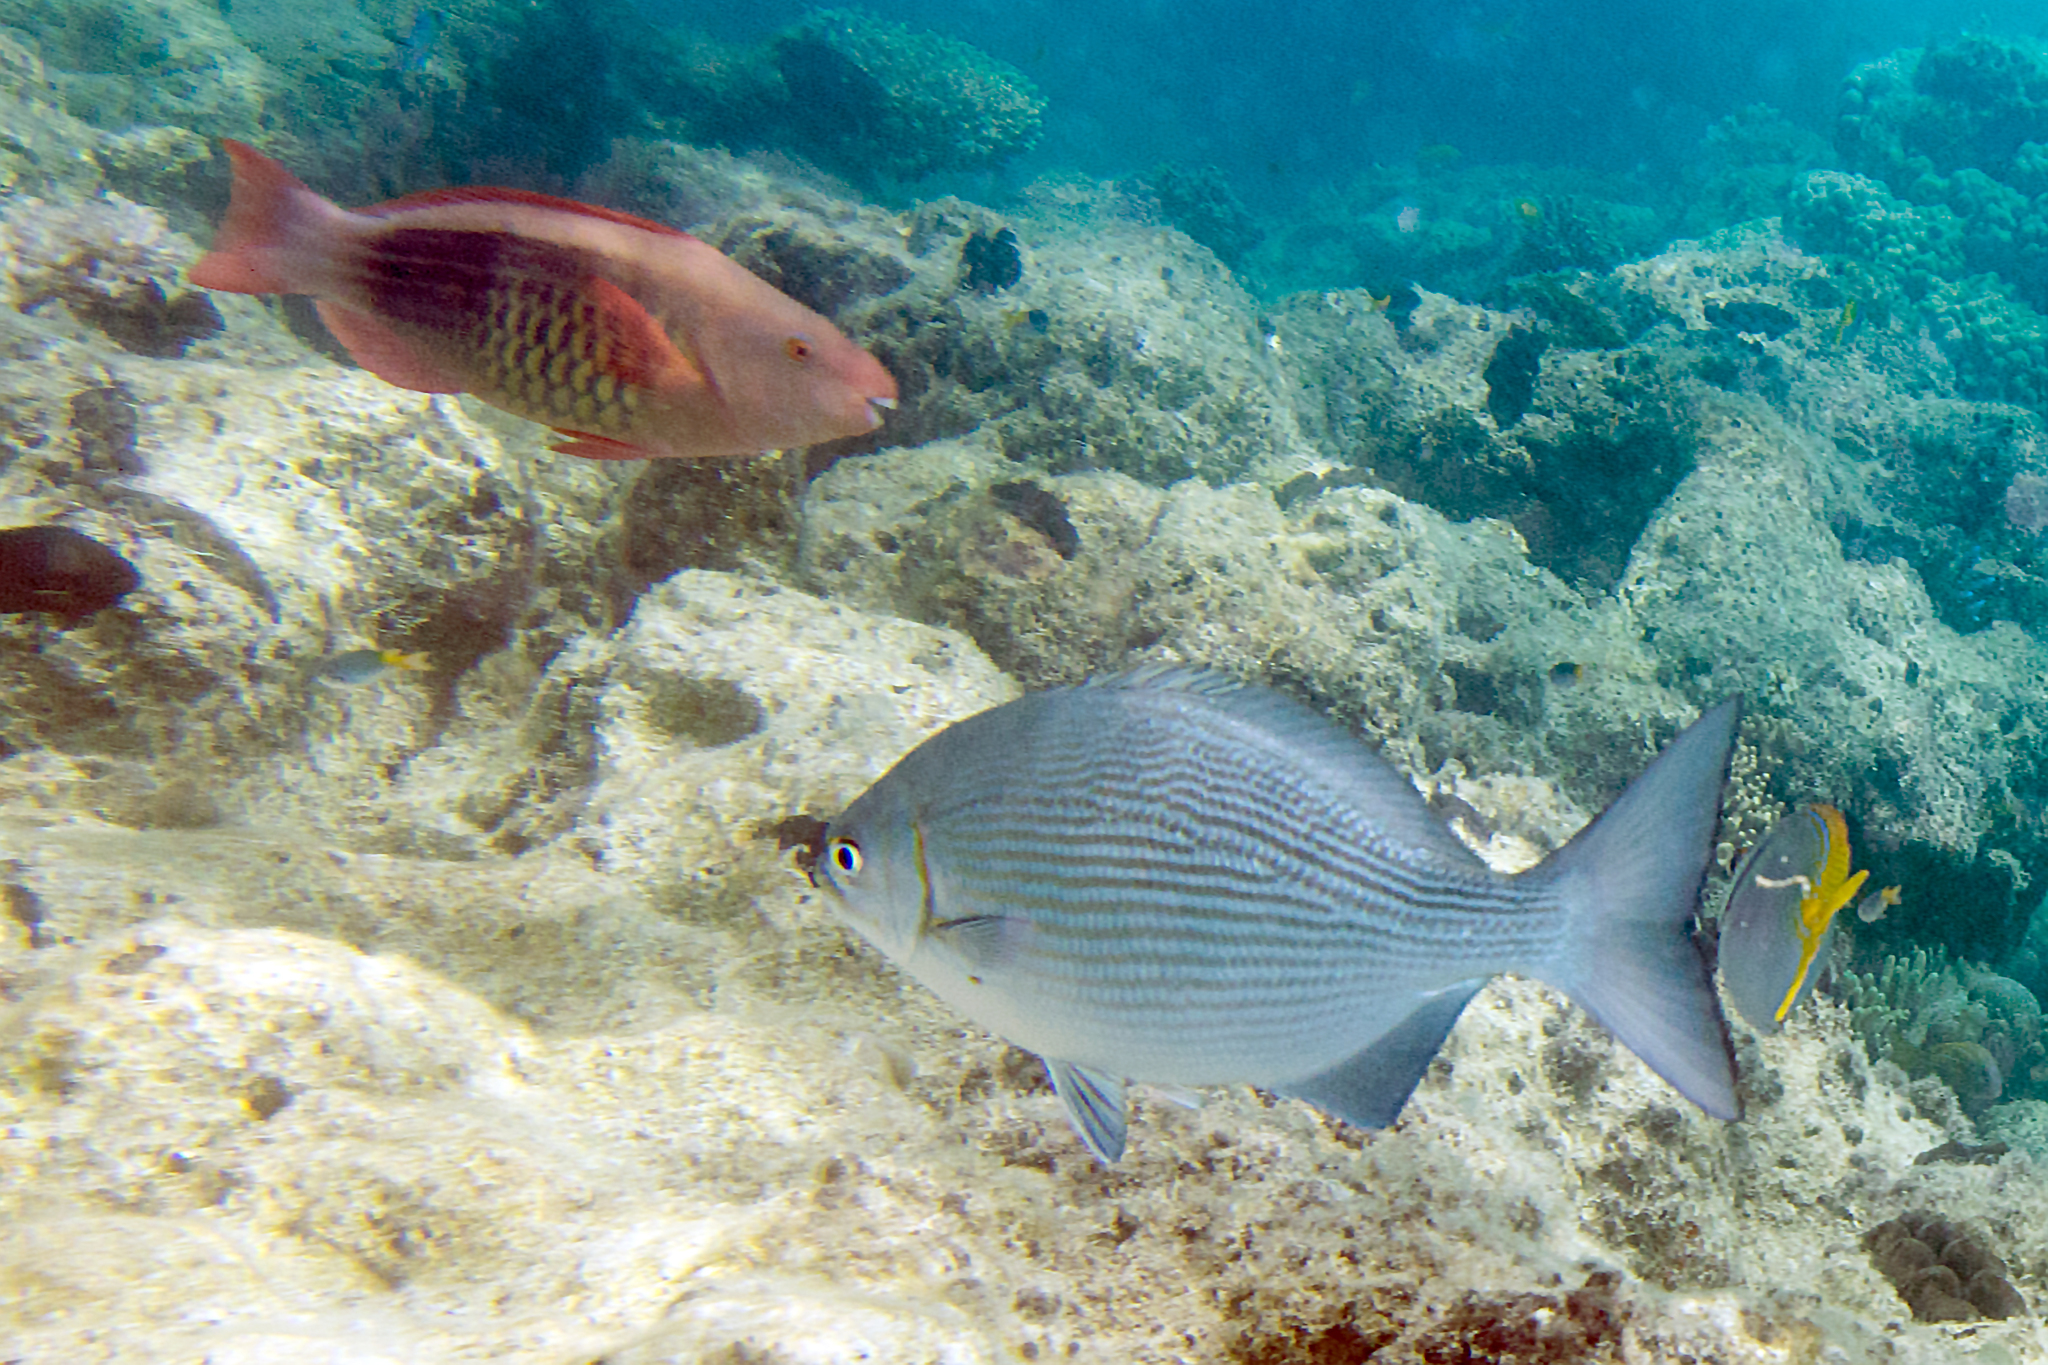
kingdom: Animalia
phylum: Chordata
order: Perciformes
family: Scaridae
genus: Scarus
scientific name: Scarus frenatus
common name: Bridled parrotfish
